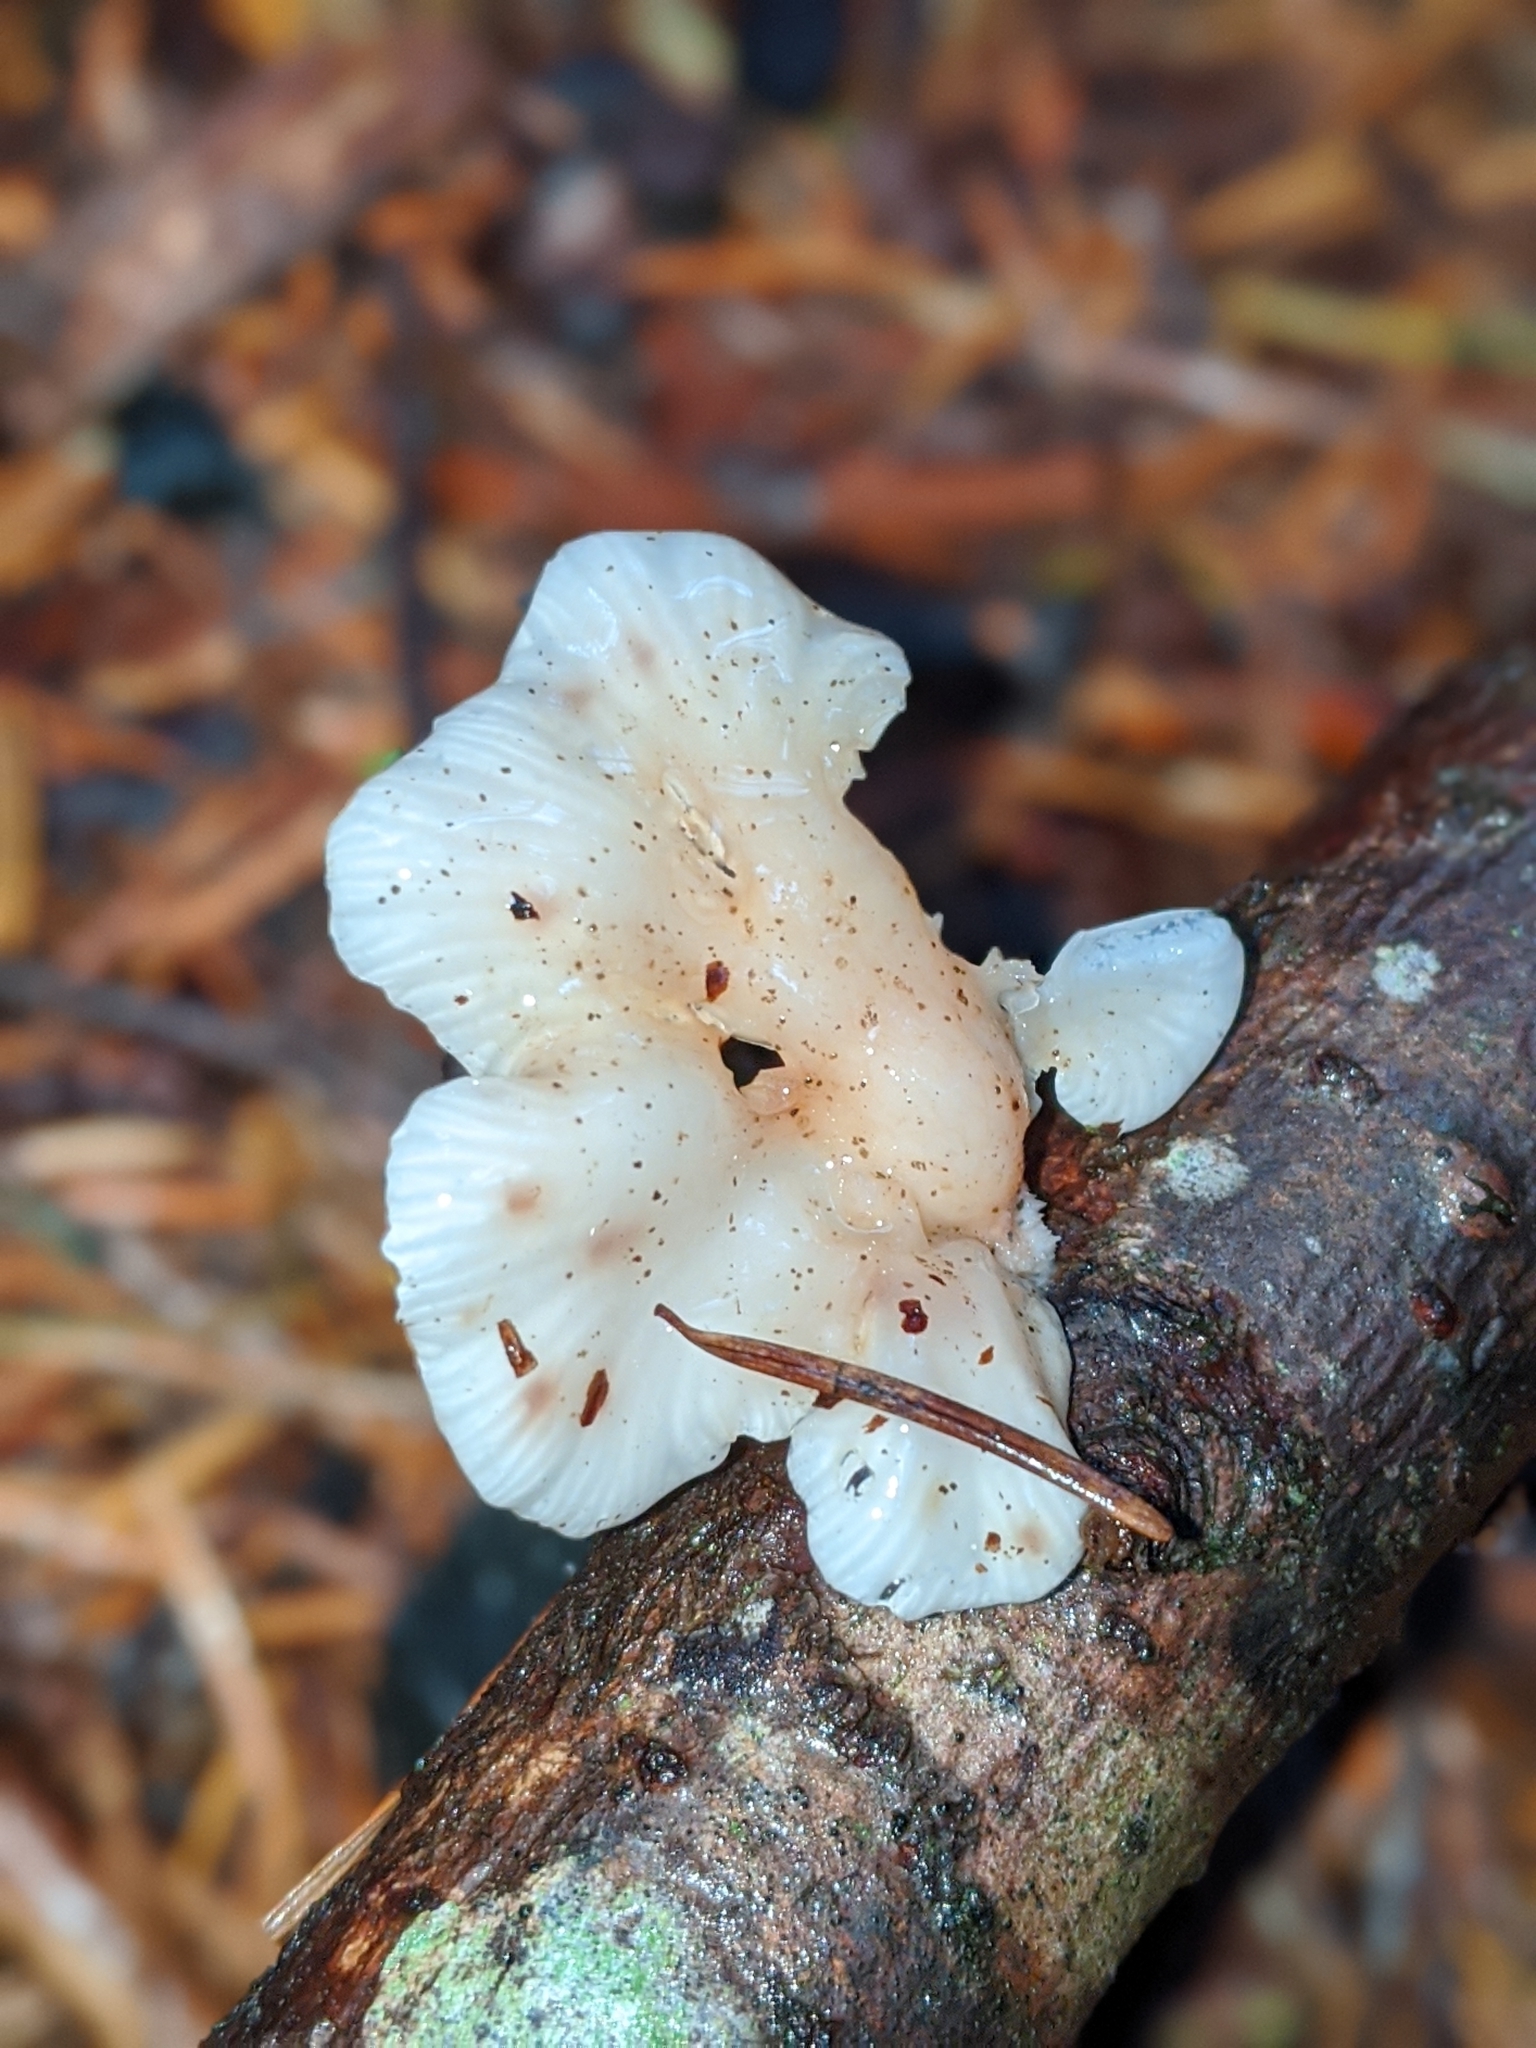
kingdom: Fungi
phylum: Basidiomycota
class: Agaricomycetes
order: Agaricales
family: Mycenaceae
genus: Panellus
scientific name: Panellus longinquus
